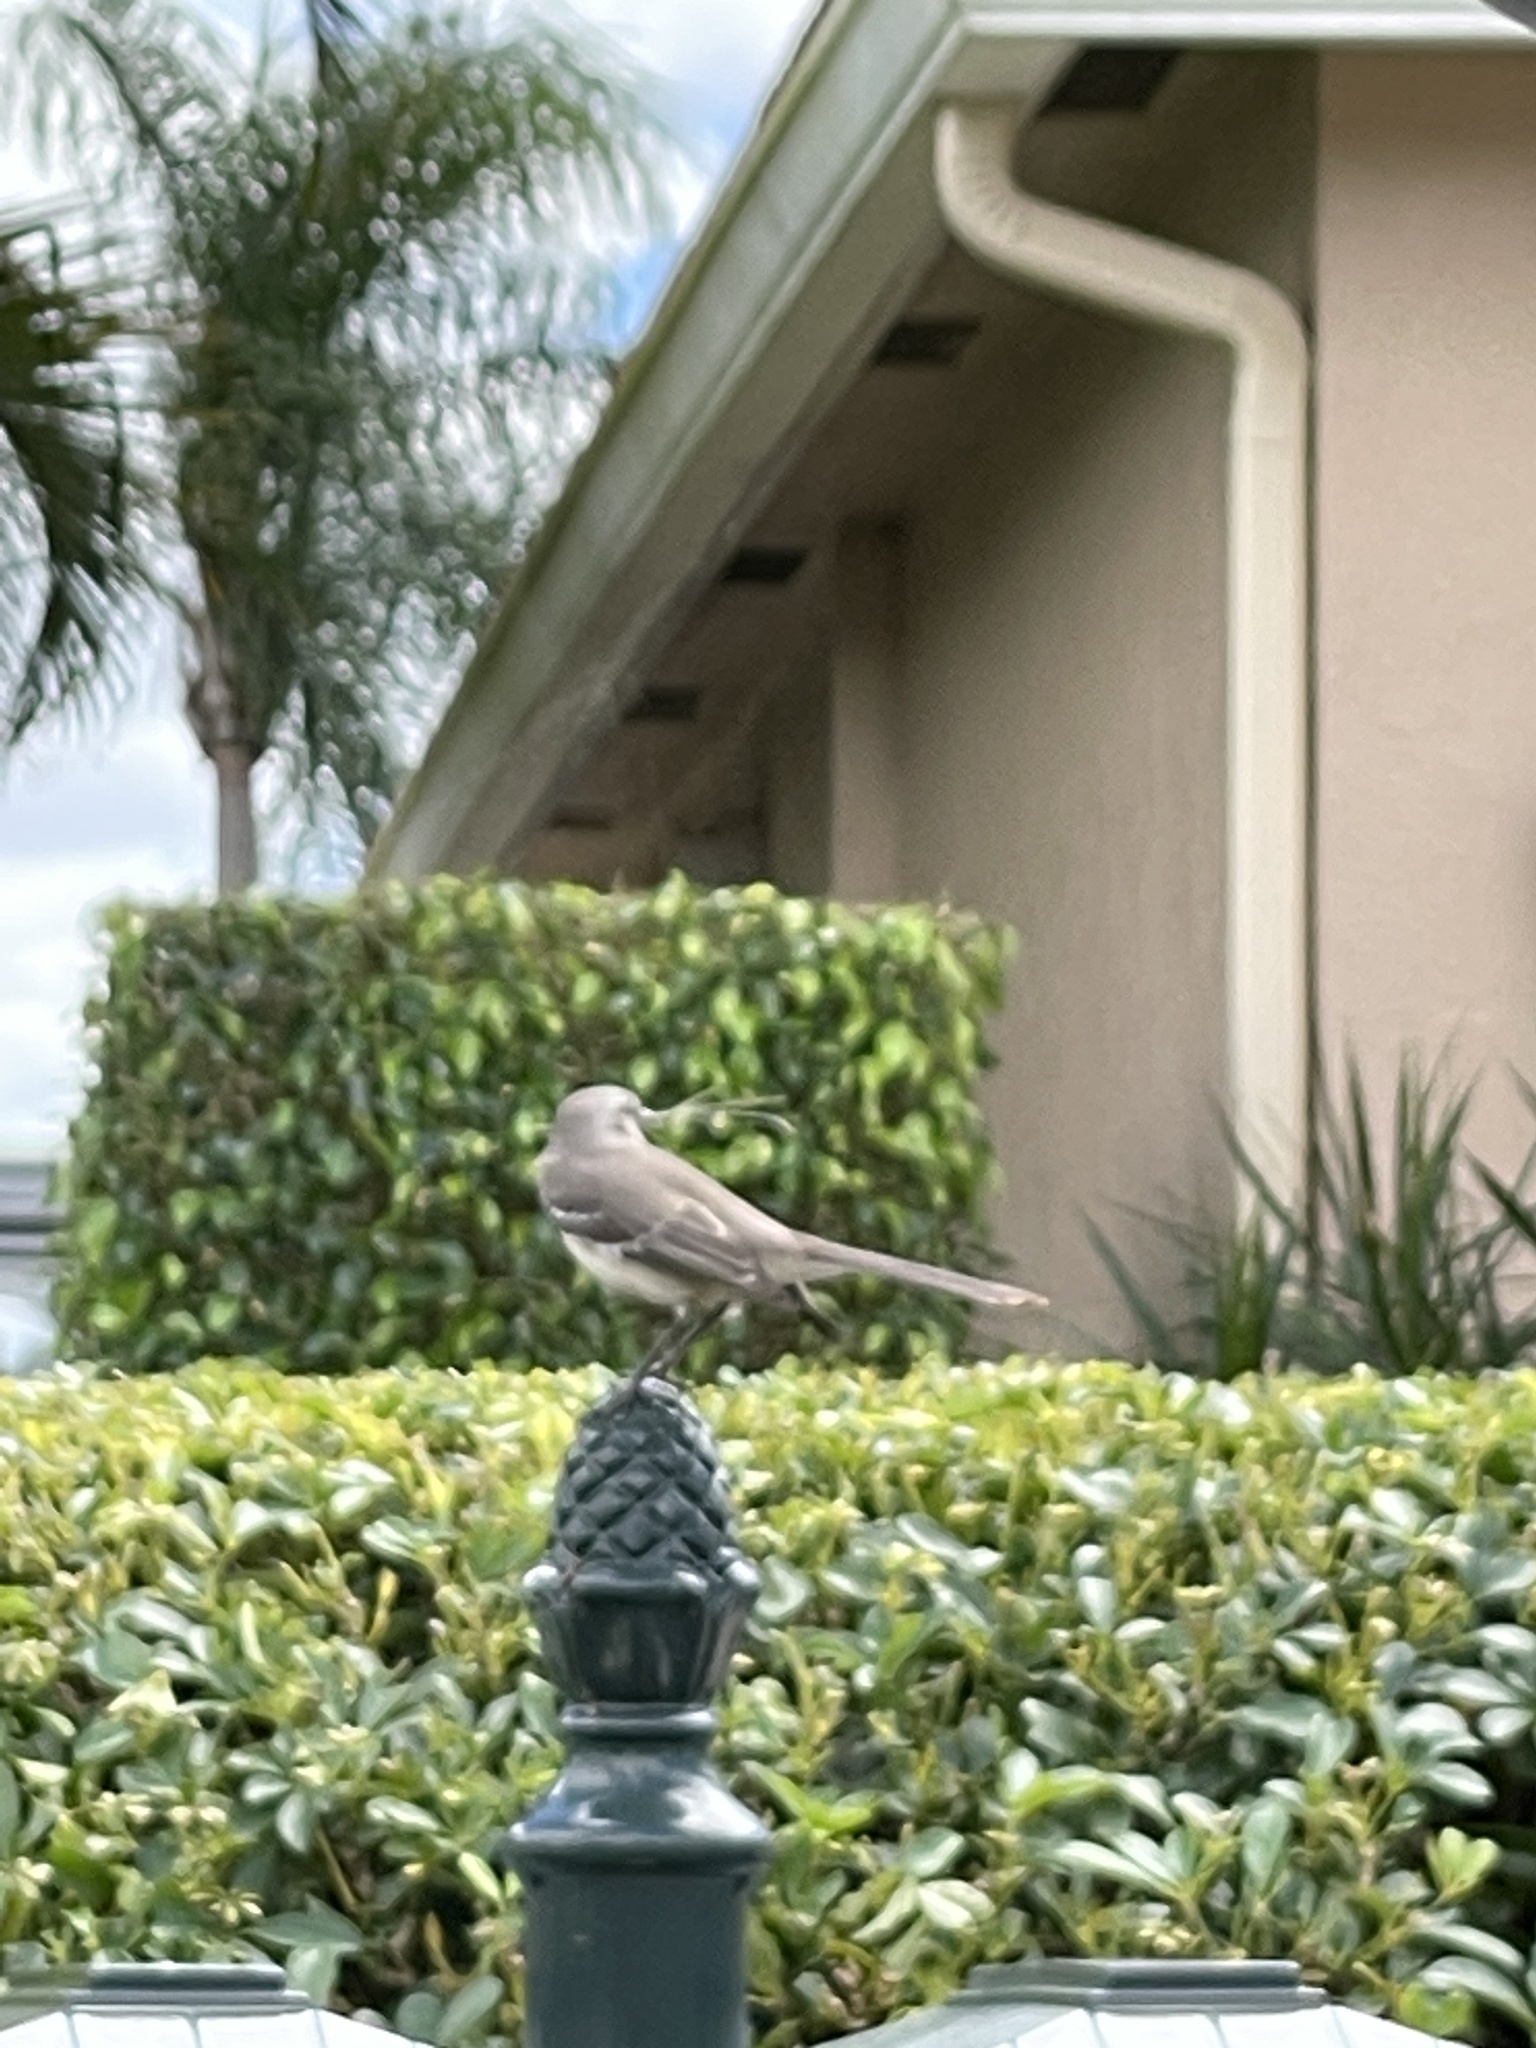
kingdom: Animalia
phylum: Chordata
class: Aves
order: Passeriformes
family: Mimidae
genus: Mimus
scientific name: Mimus polyglottos
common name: Northern mockingbird
